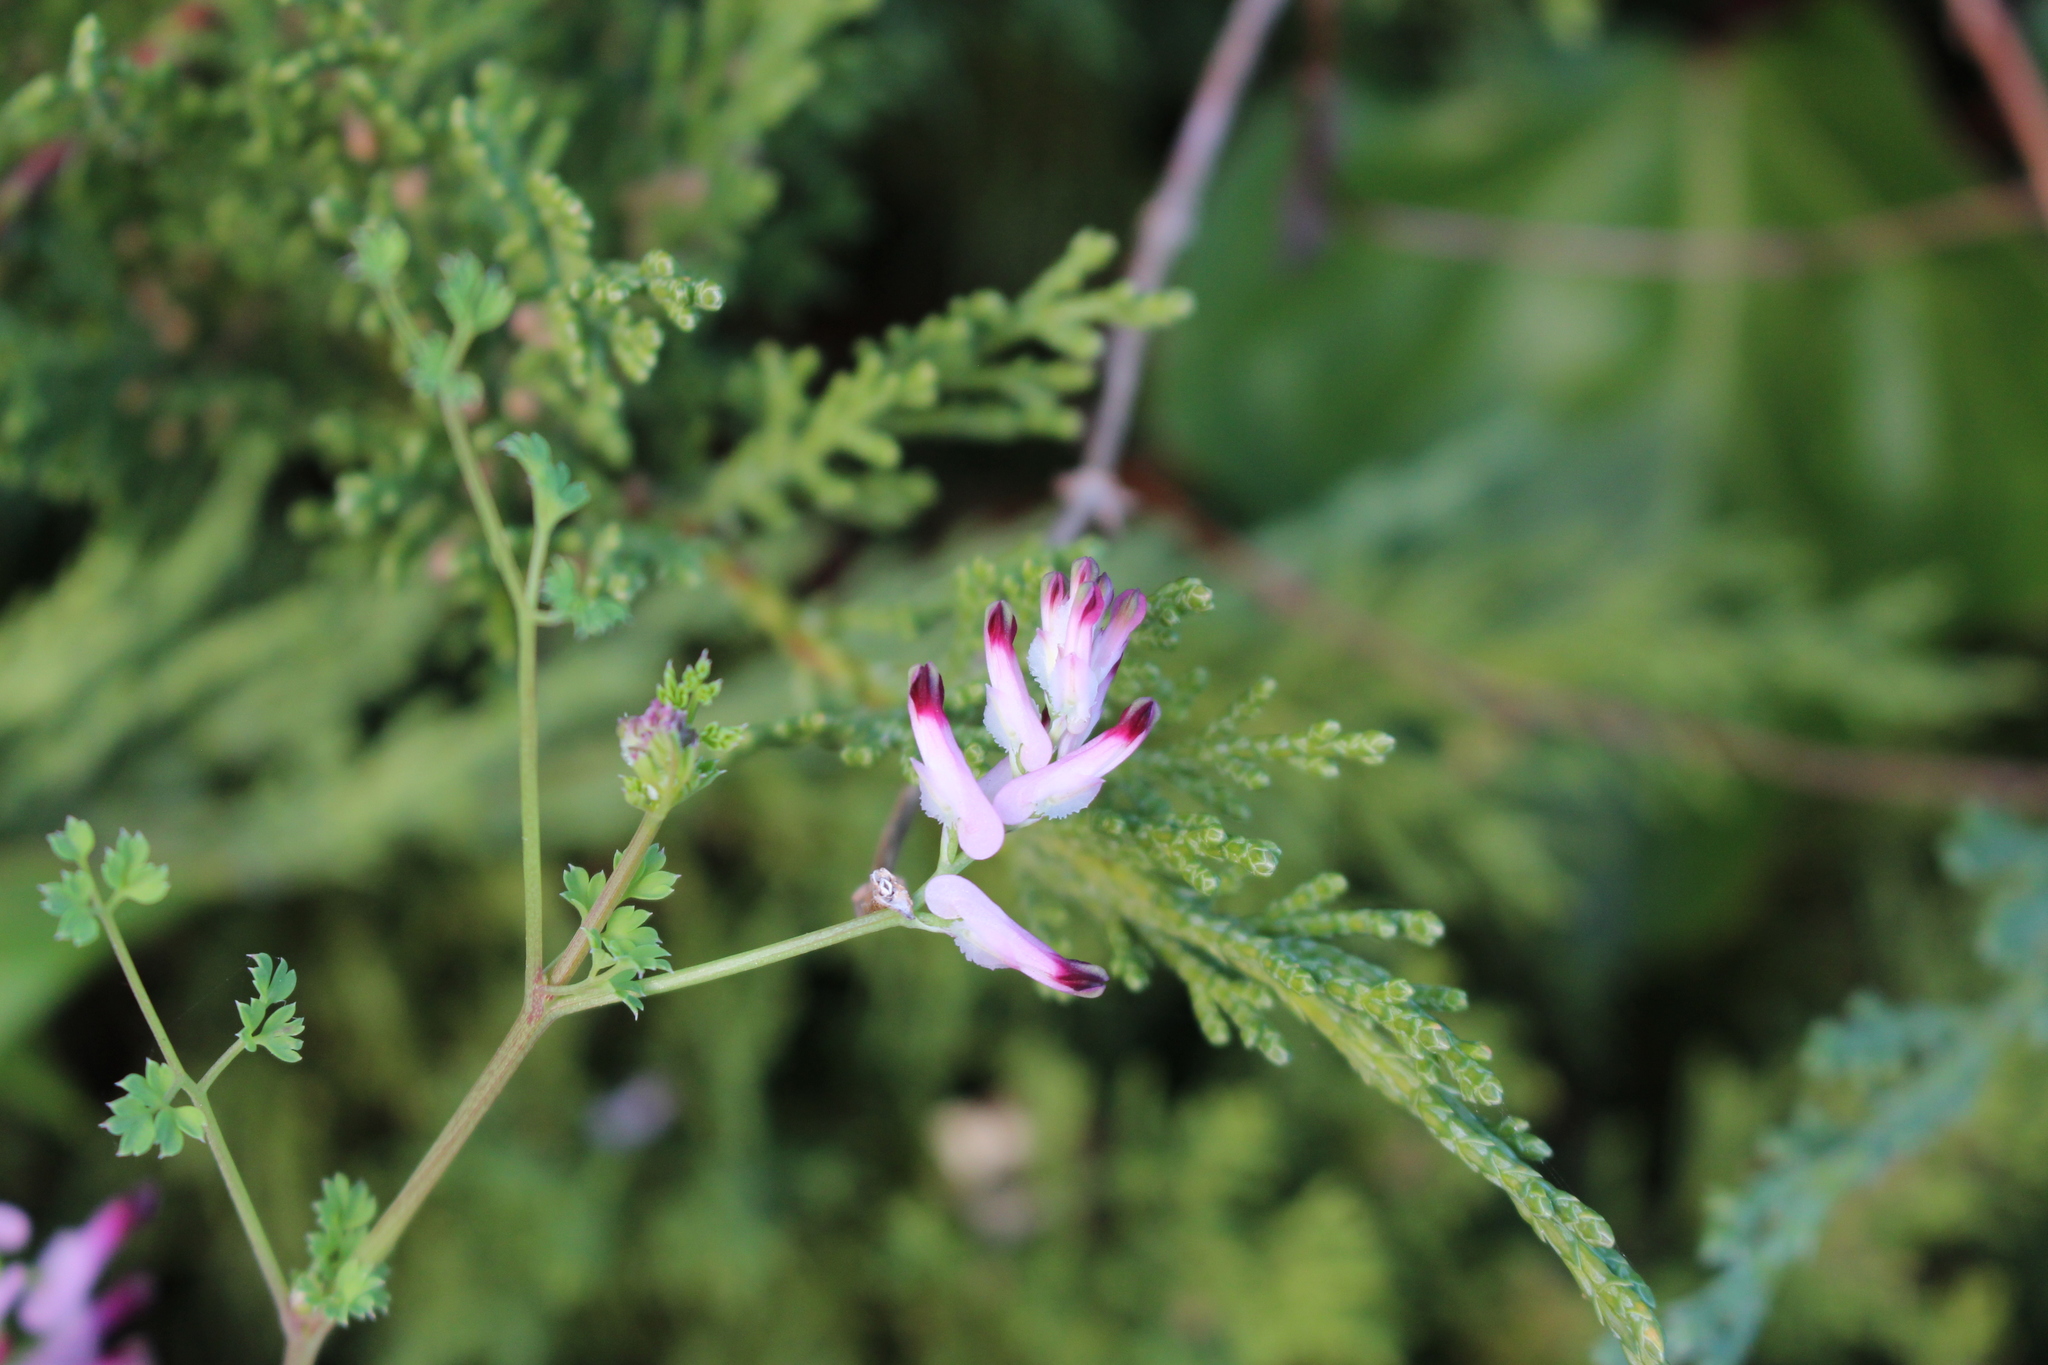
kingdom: Plantae
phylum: Tracheophyta
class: Magnoliopsida
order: Ranunculales
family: Papaveraceae
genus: Fumaria
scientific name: Fumaria muralis
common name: Common ramping-fumitory
